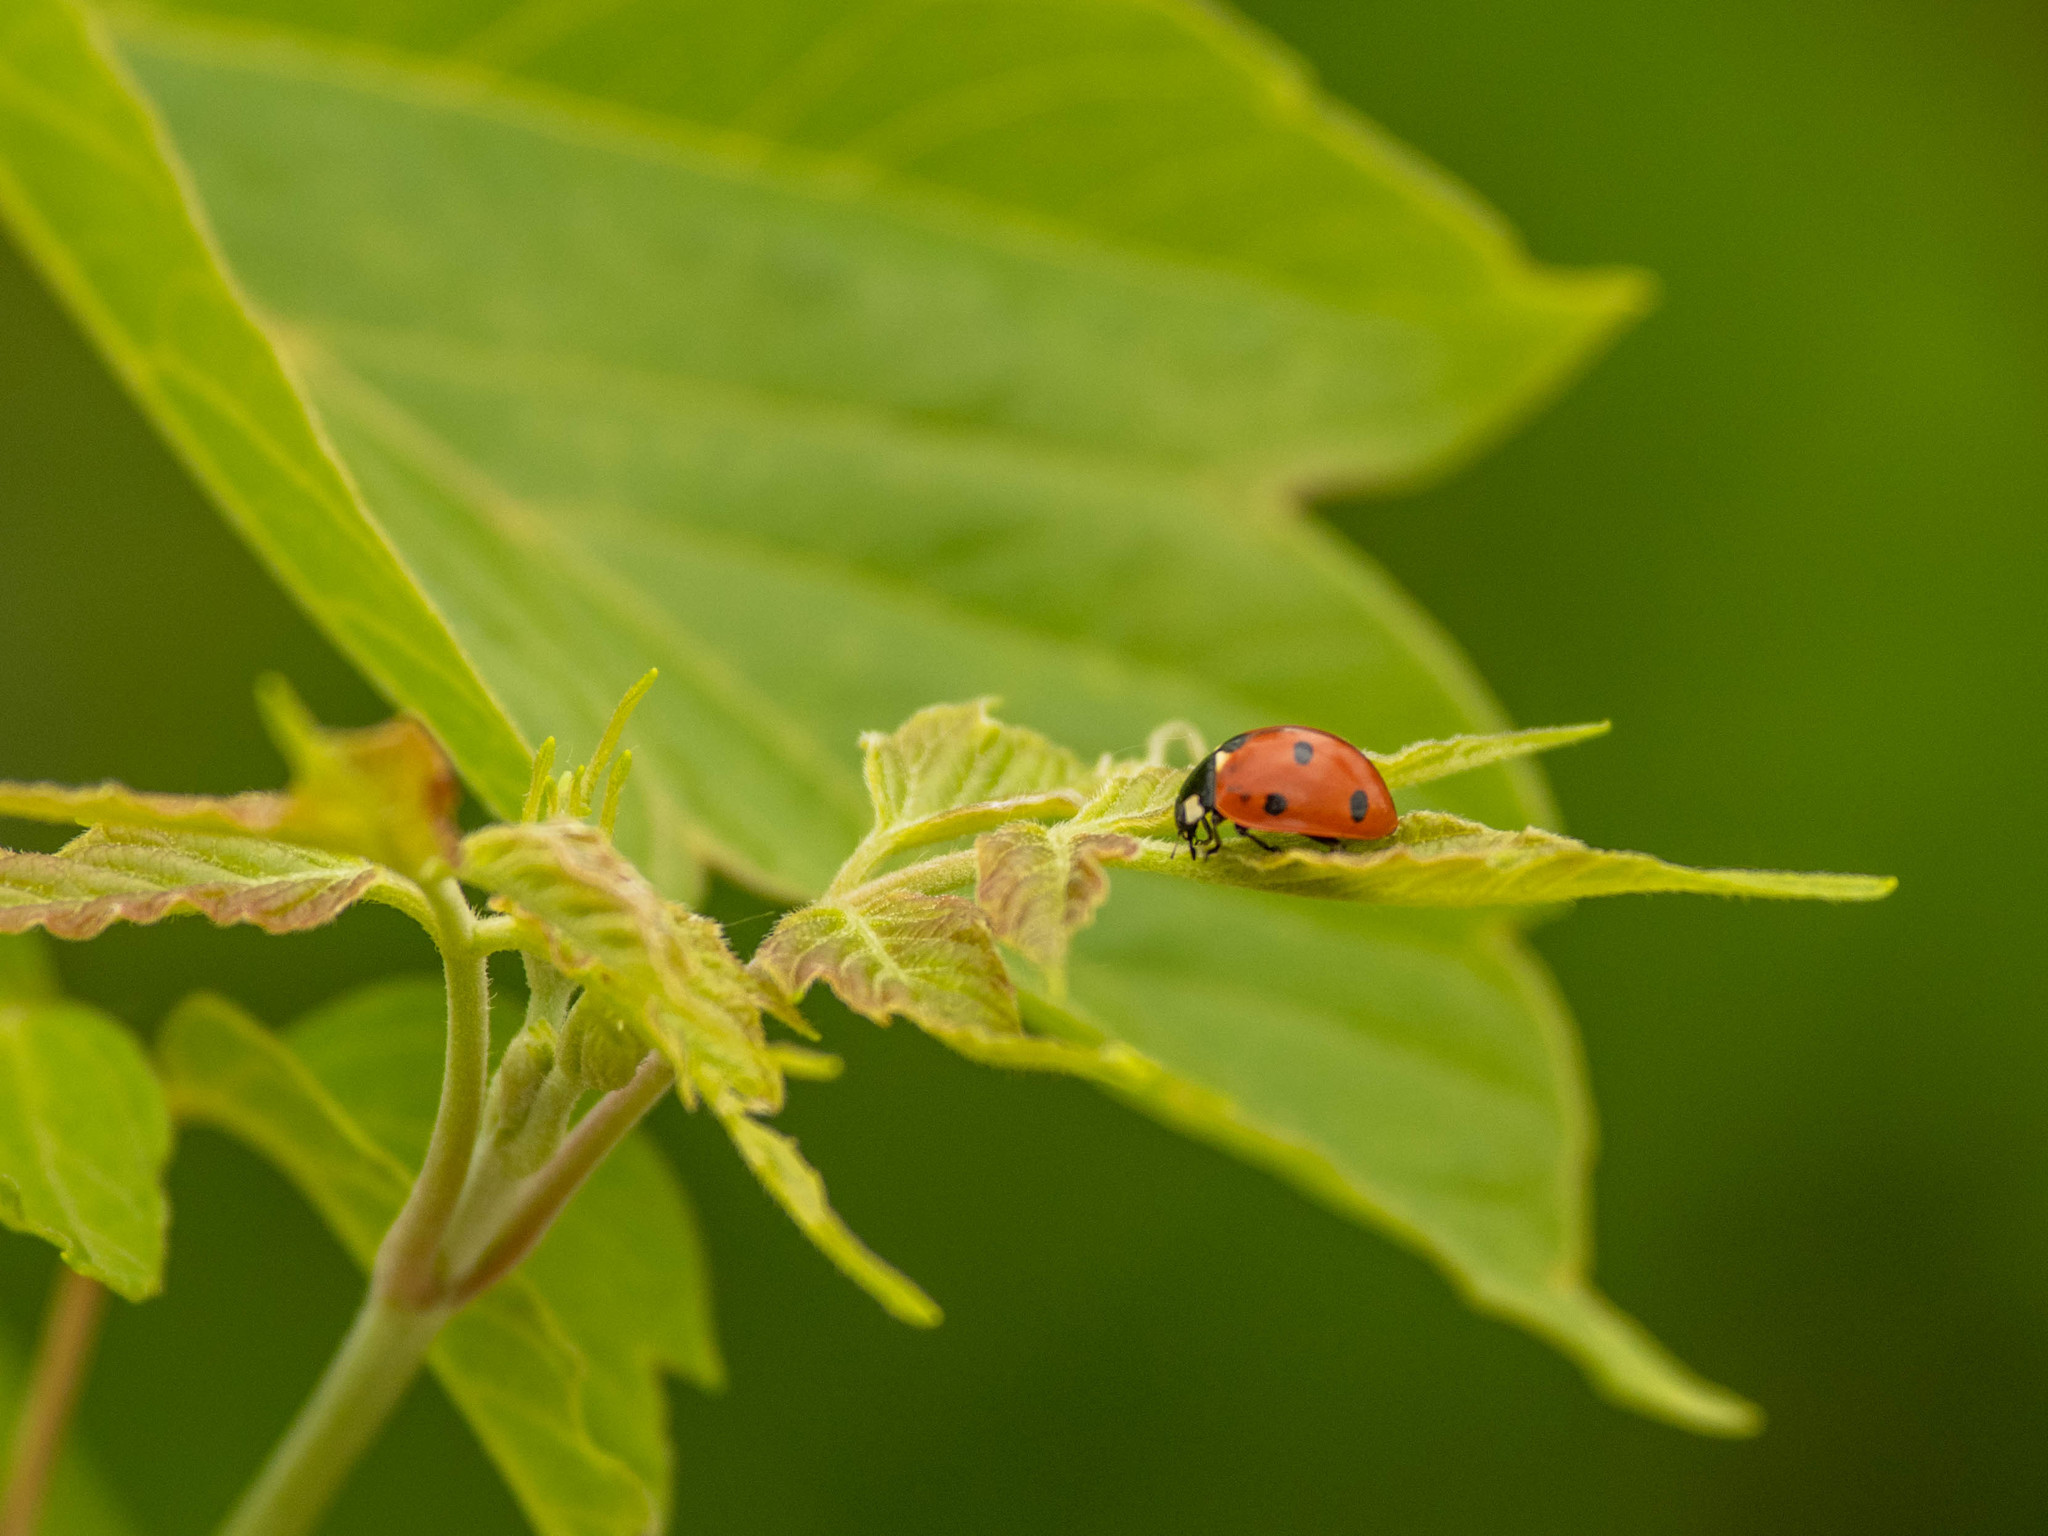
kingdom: Animalia
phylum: Arthropoda
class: Insecta
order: Coleoptera
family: Coccinellidae
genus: Coccinella
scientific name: Coccinella septempunctata
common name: Sevenspotted lady beetle
